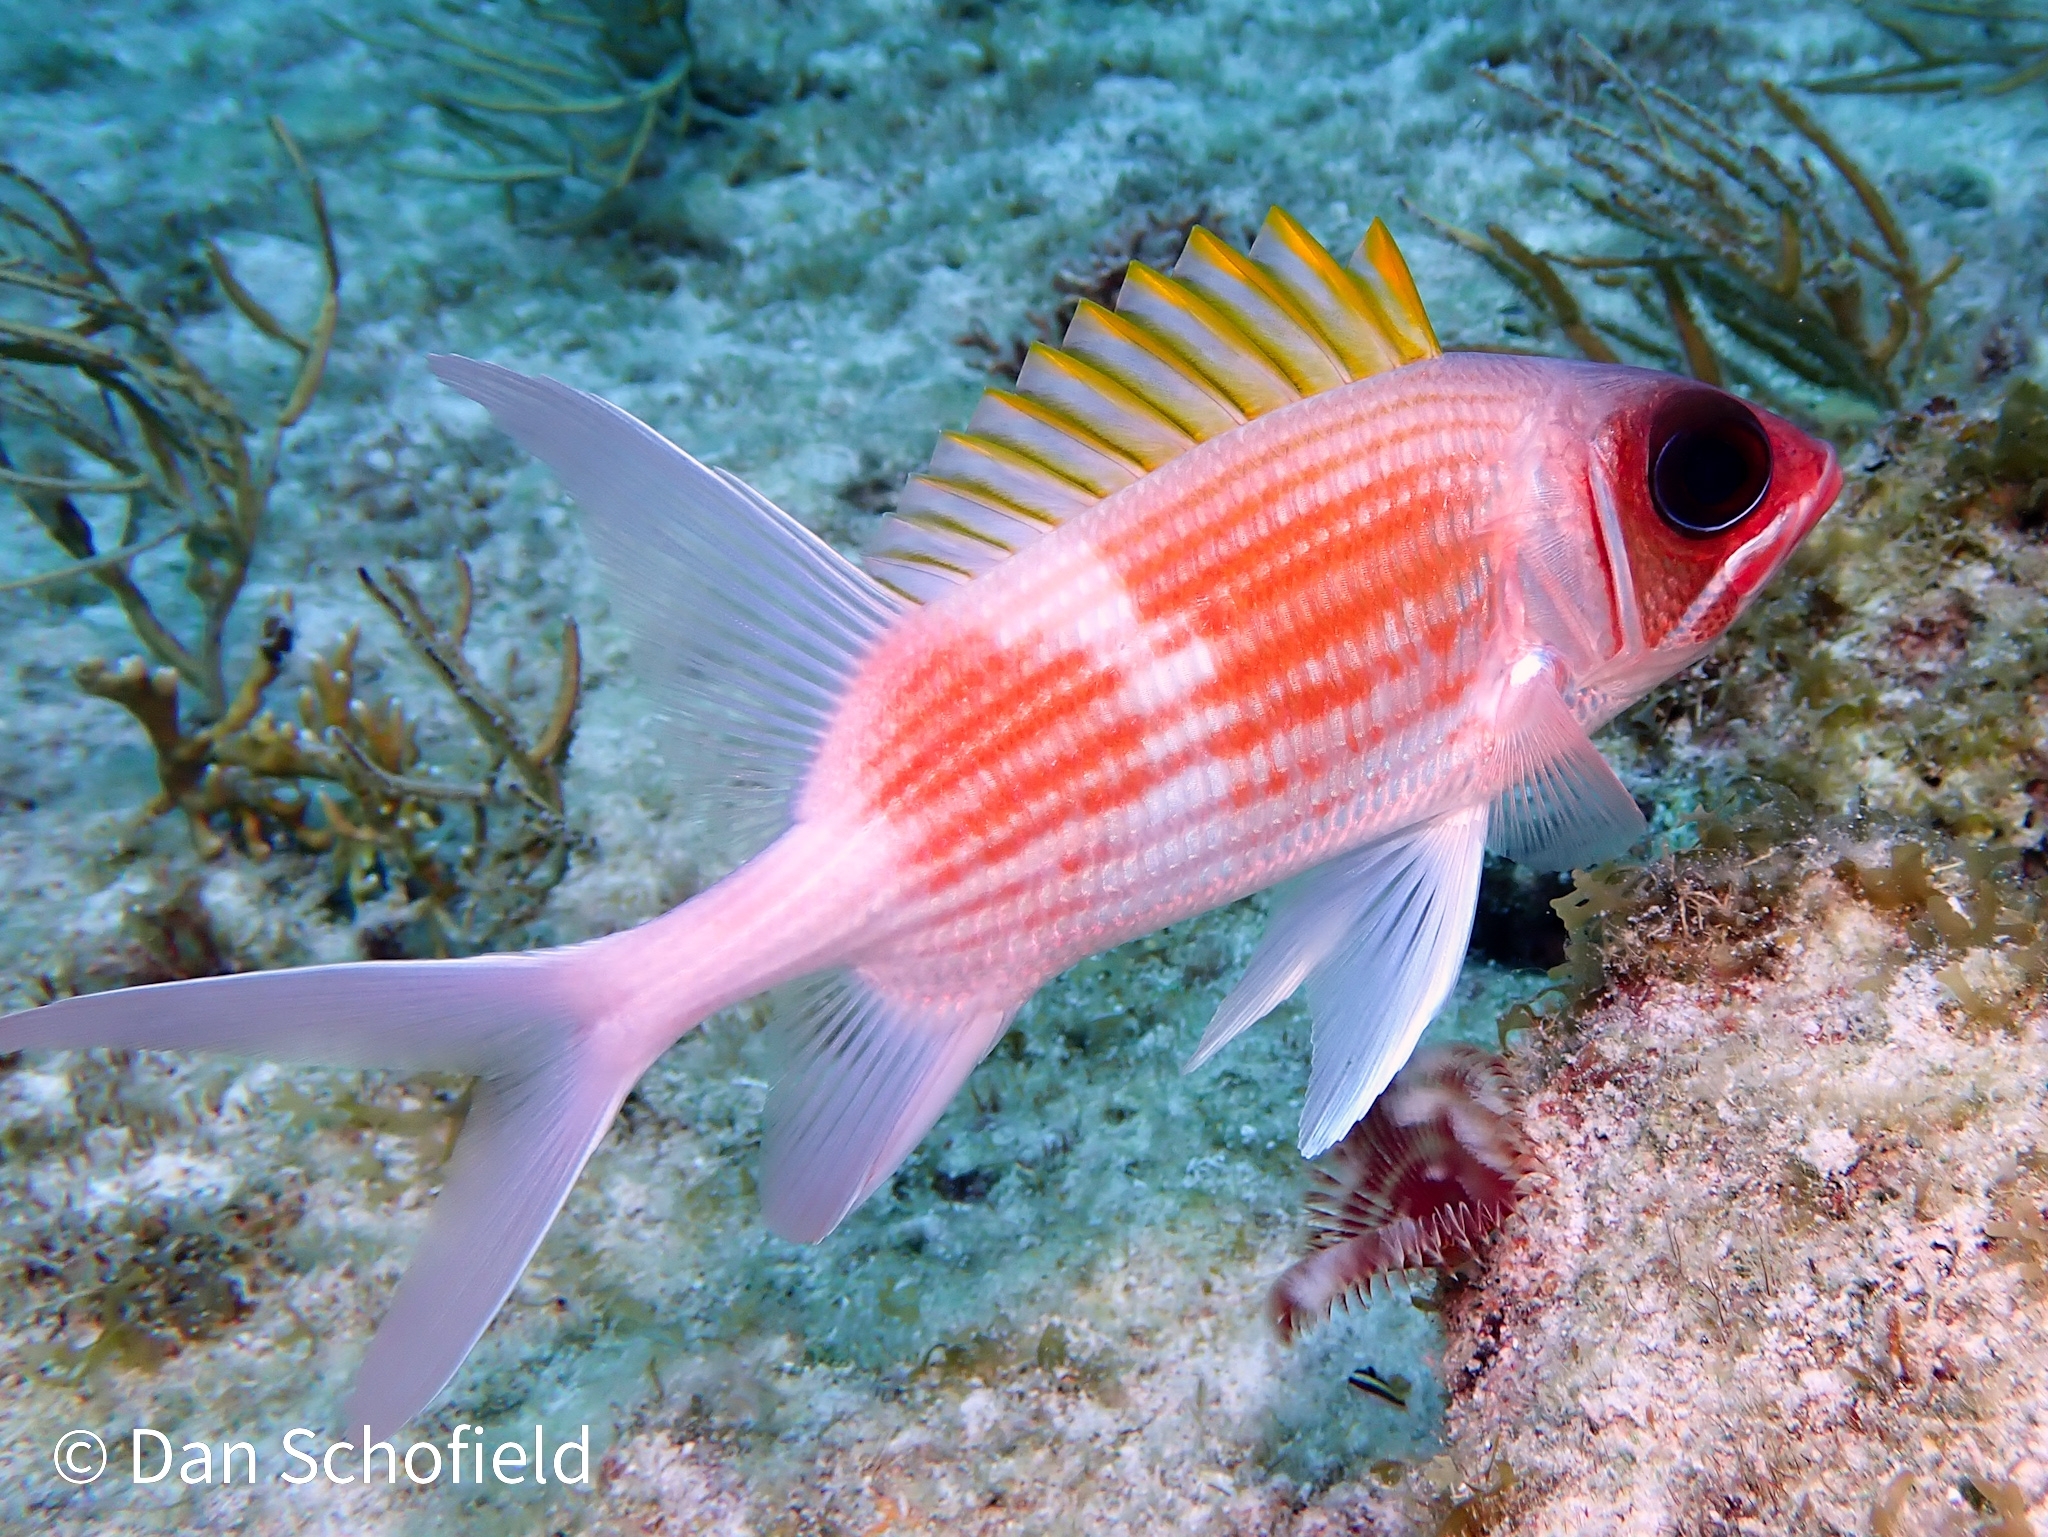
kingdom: Animalia
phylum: Chordata
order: Beryciformes
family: Holocentridae
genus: Holocentrus
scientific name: Holocentrus adscensionis
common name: Squirrelfish
